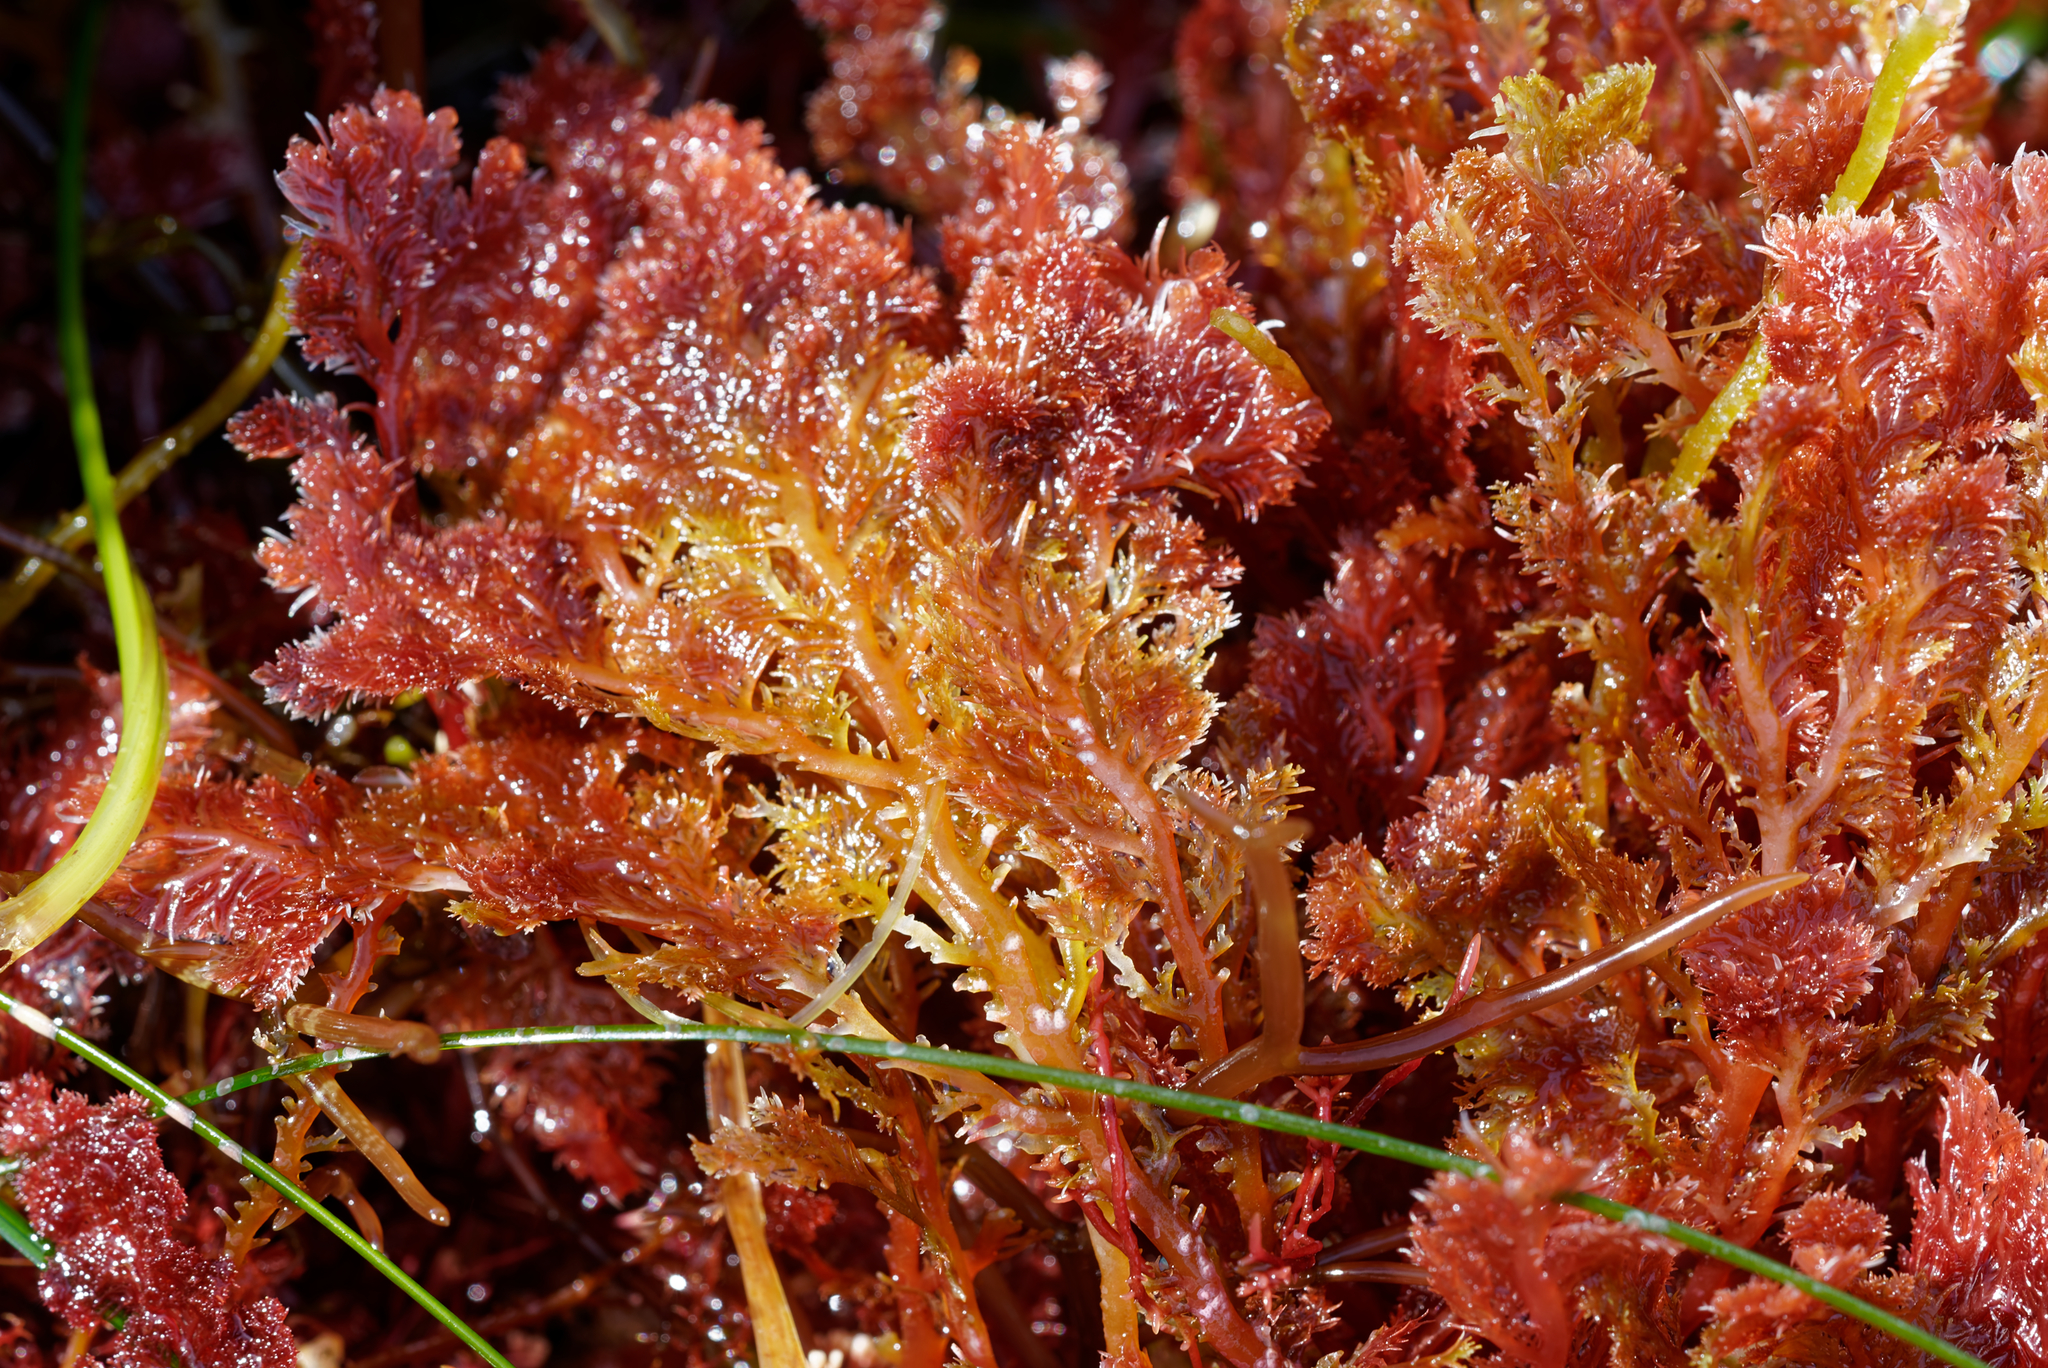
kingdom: Plantae
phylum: Rhodophyta
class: Florideophyceae
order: Plocamiales
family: Plocamiaceae
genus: Plocamium
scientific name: Plocamium cartilagineum
